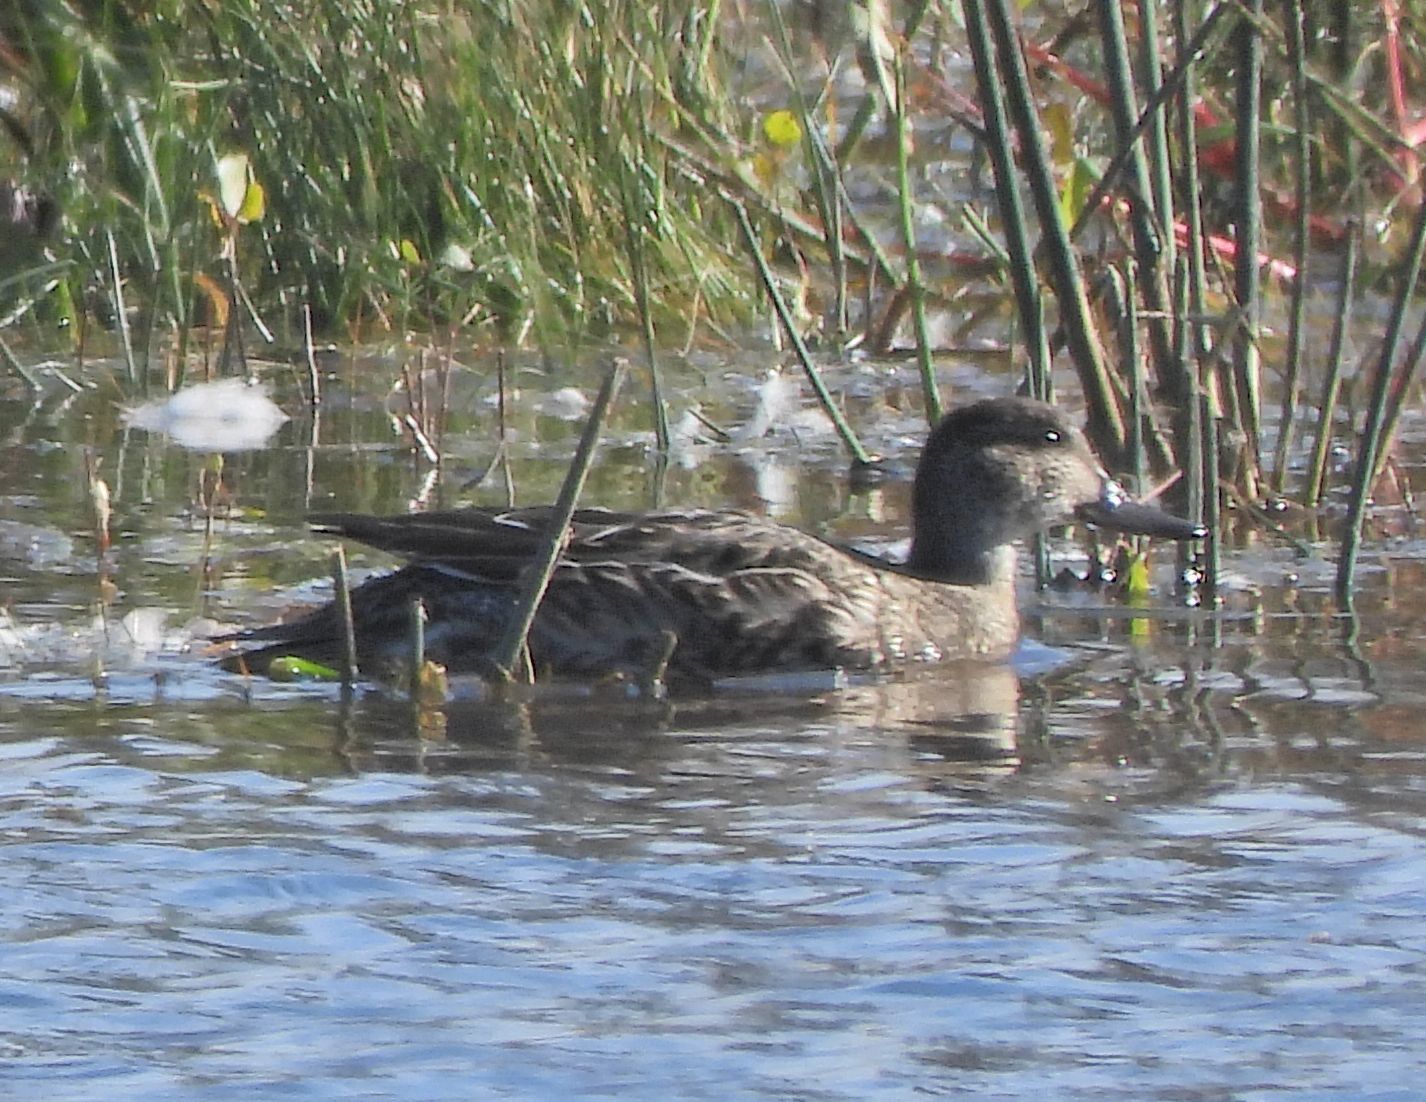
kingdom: Animalia
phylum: Chordata
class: Aves
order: Anseriformes
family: Anatidae
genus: Anas
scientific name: Anas crecca
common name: Eurasian teal
